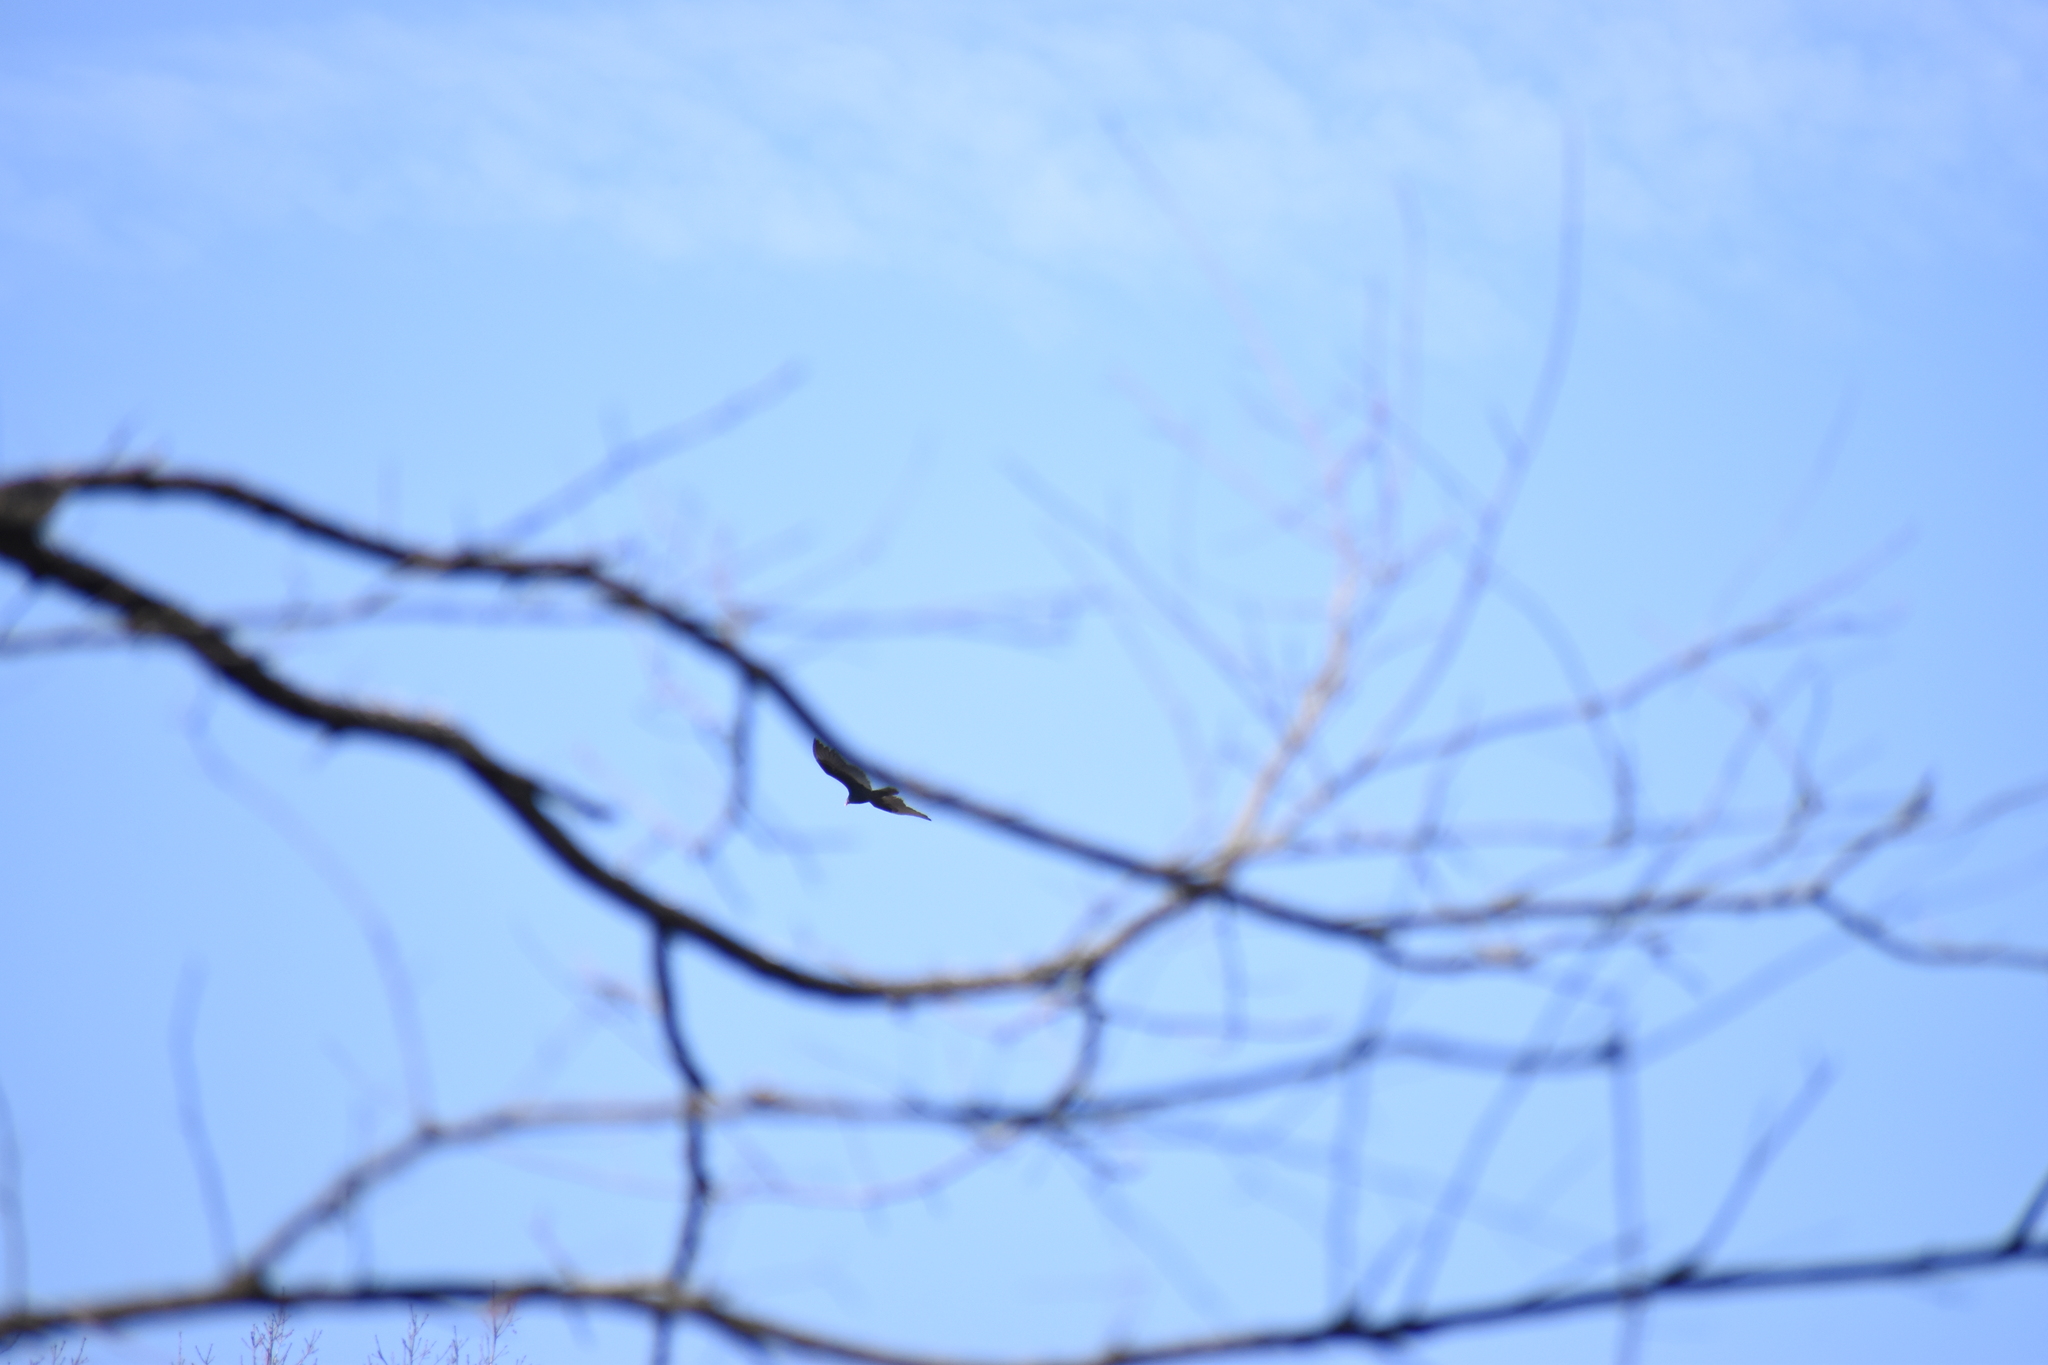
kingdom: Animalia
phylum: Chordata
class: Aves
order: Accipitriformes
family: Cathartidae
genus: Cathartes
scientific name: Cathartes aura
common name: Turkey vulture
